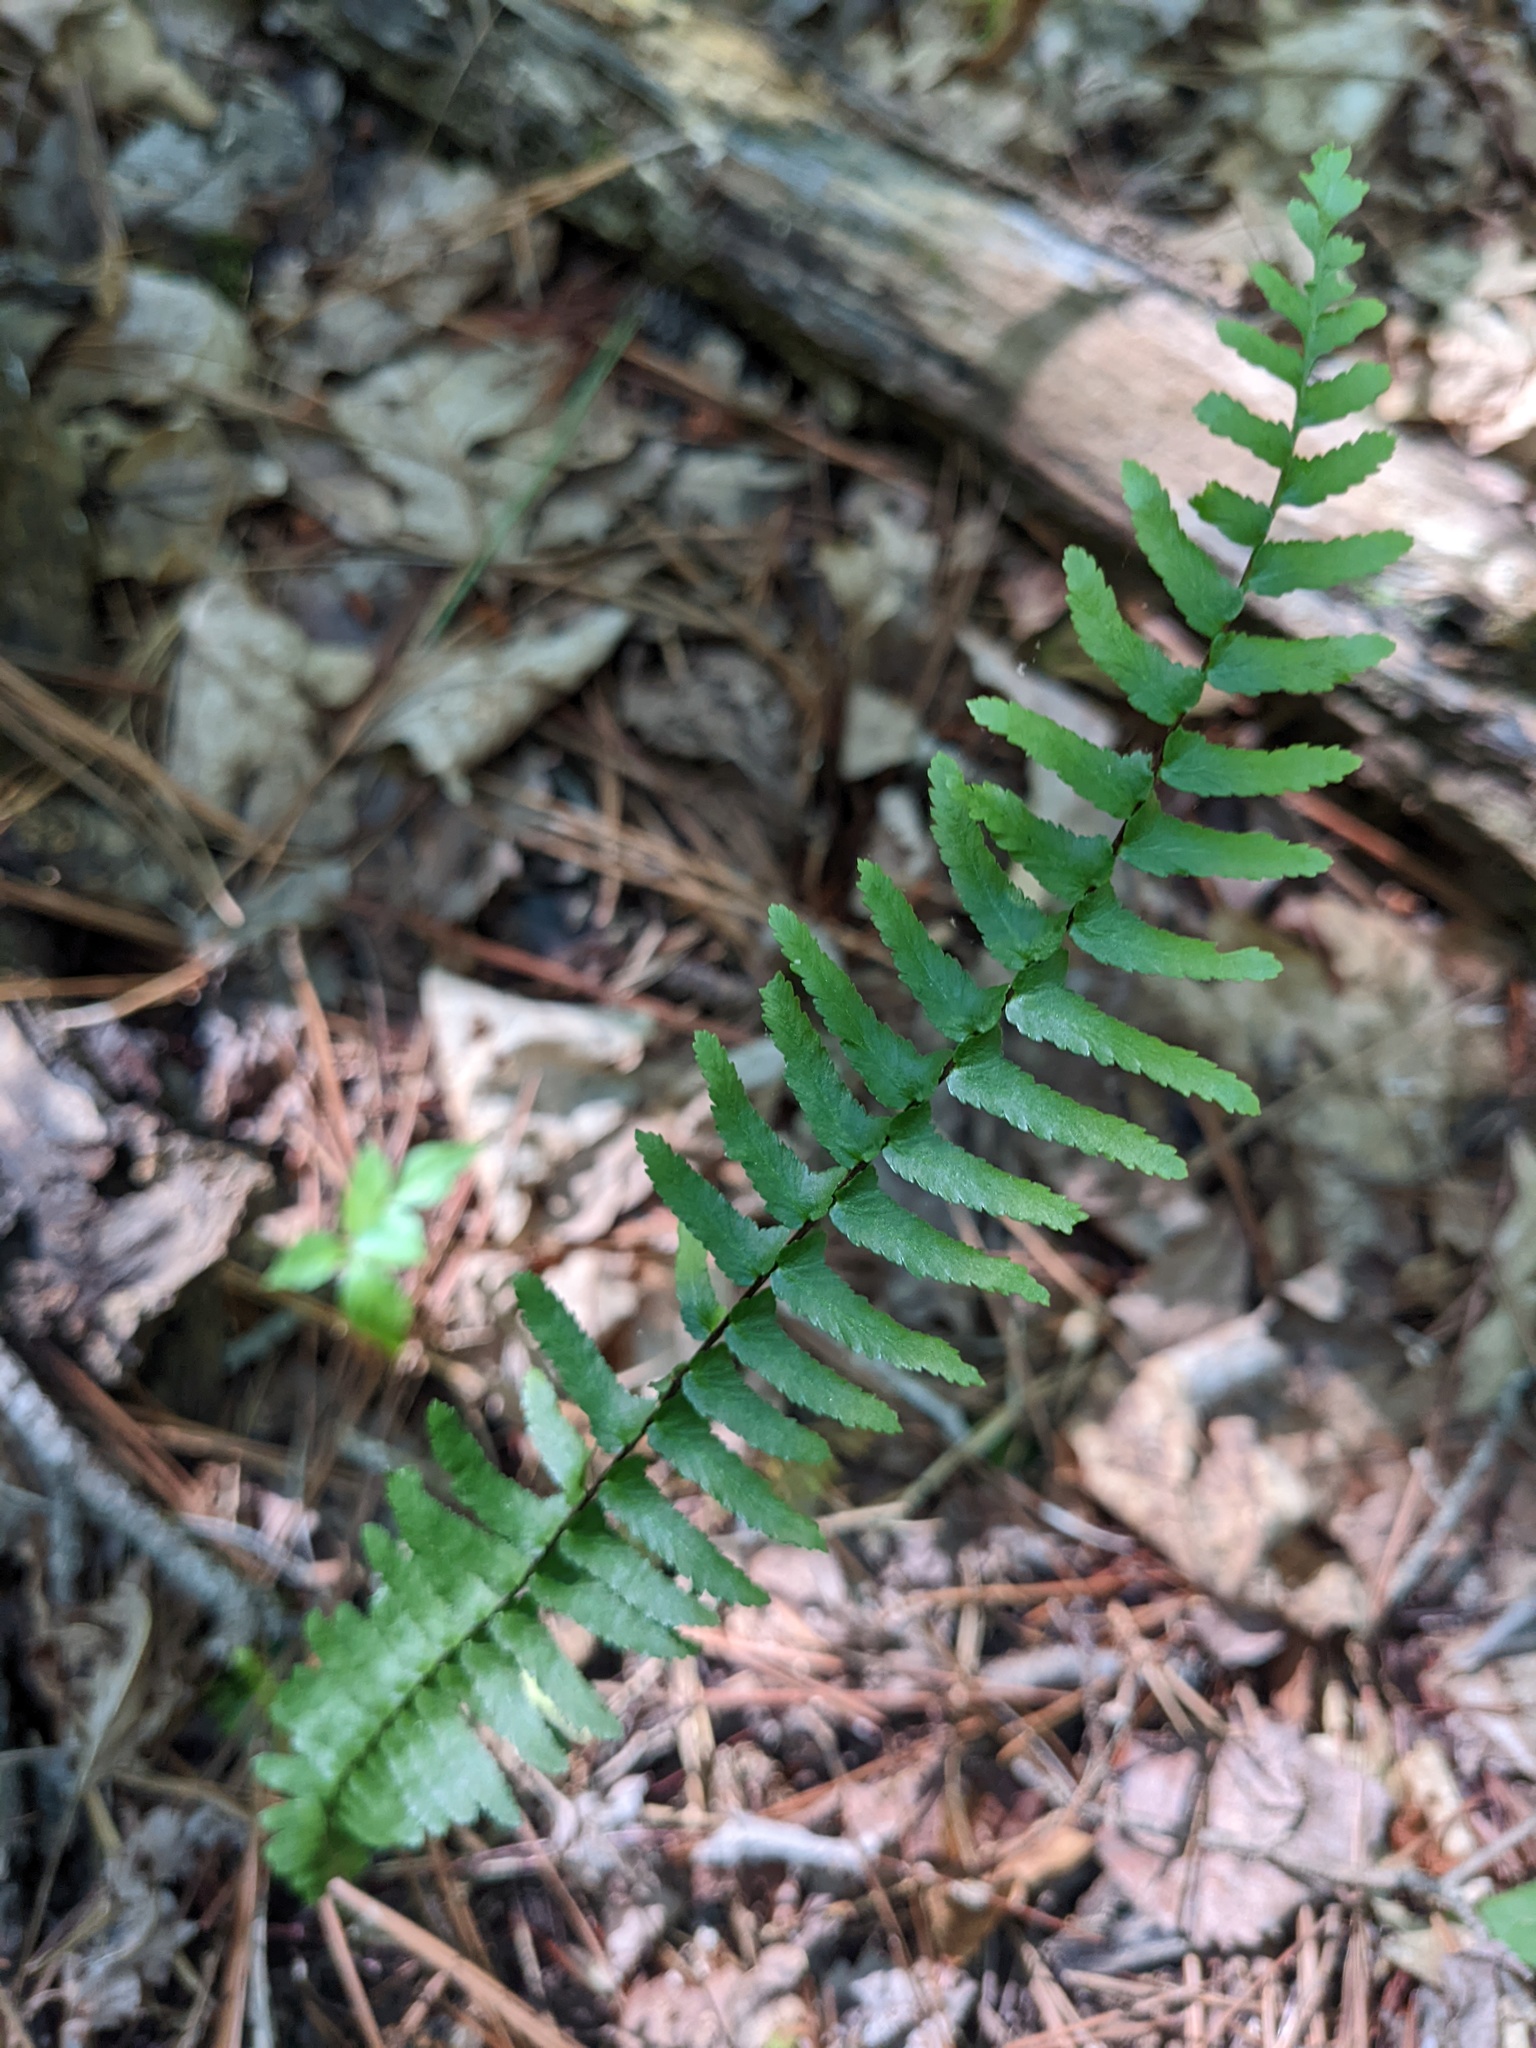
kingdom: Plantae
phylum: Tracheophyta
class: Polypodiopsida
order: Polypodiales
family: Aspleniaceae
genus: Asplenium
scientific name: Asplenium platyneuron
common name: Ebony spleenwort
